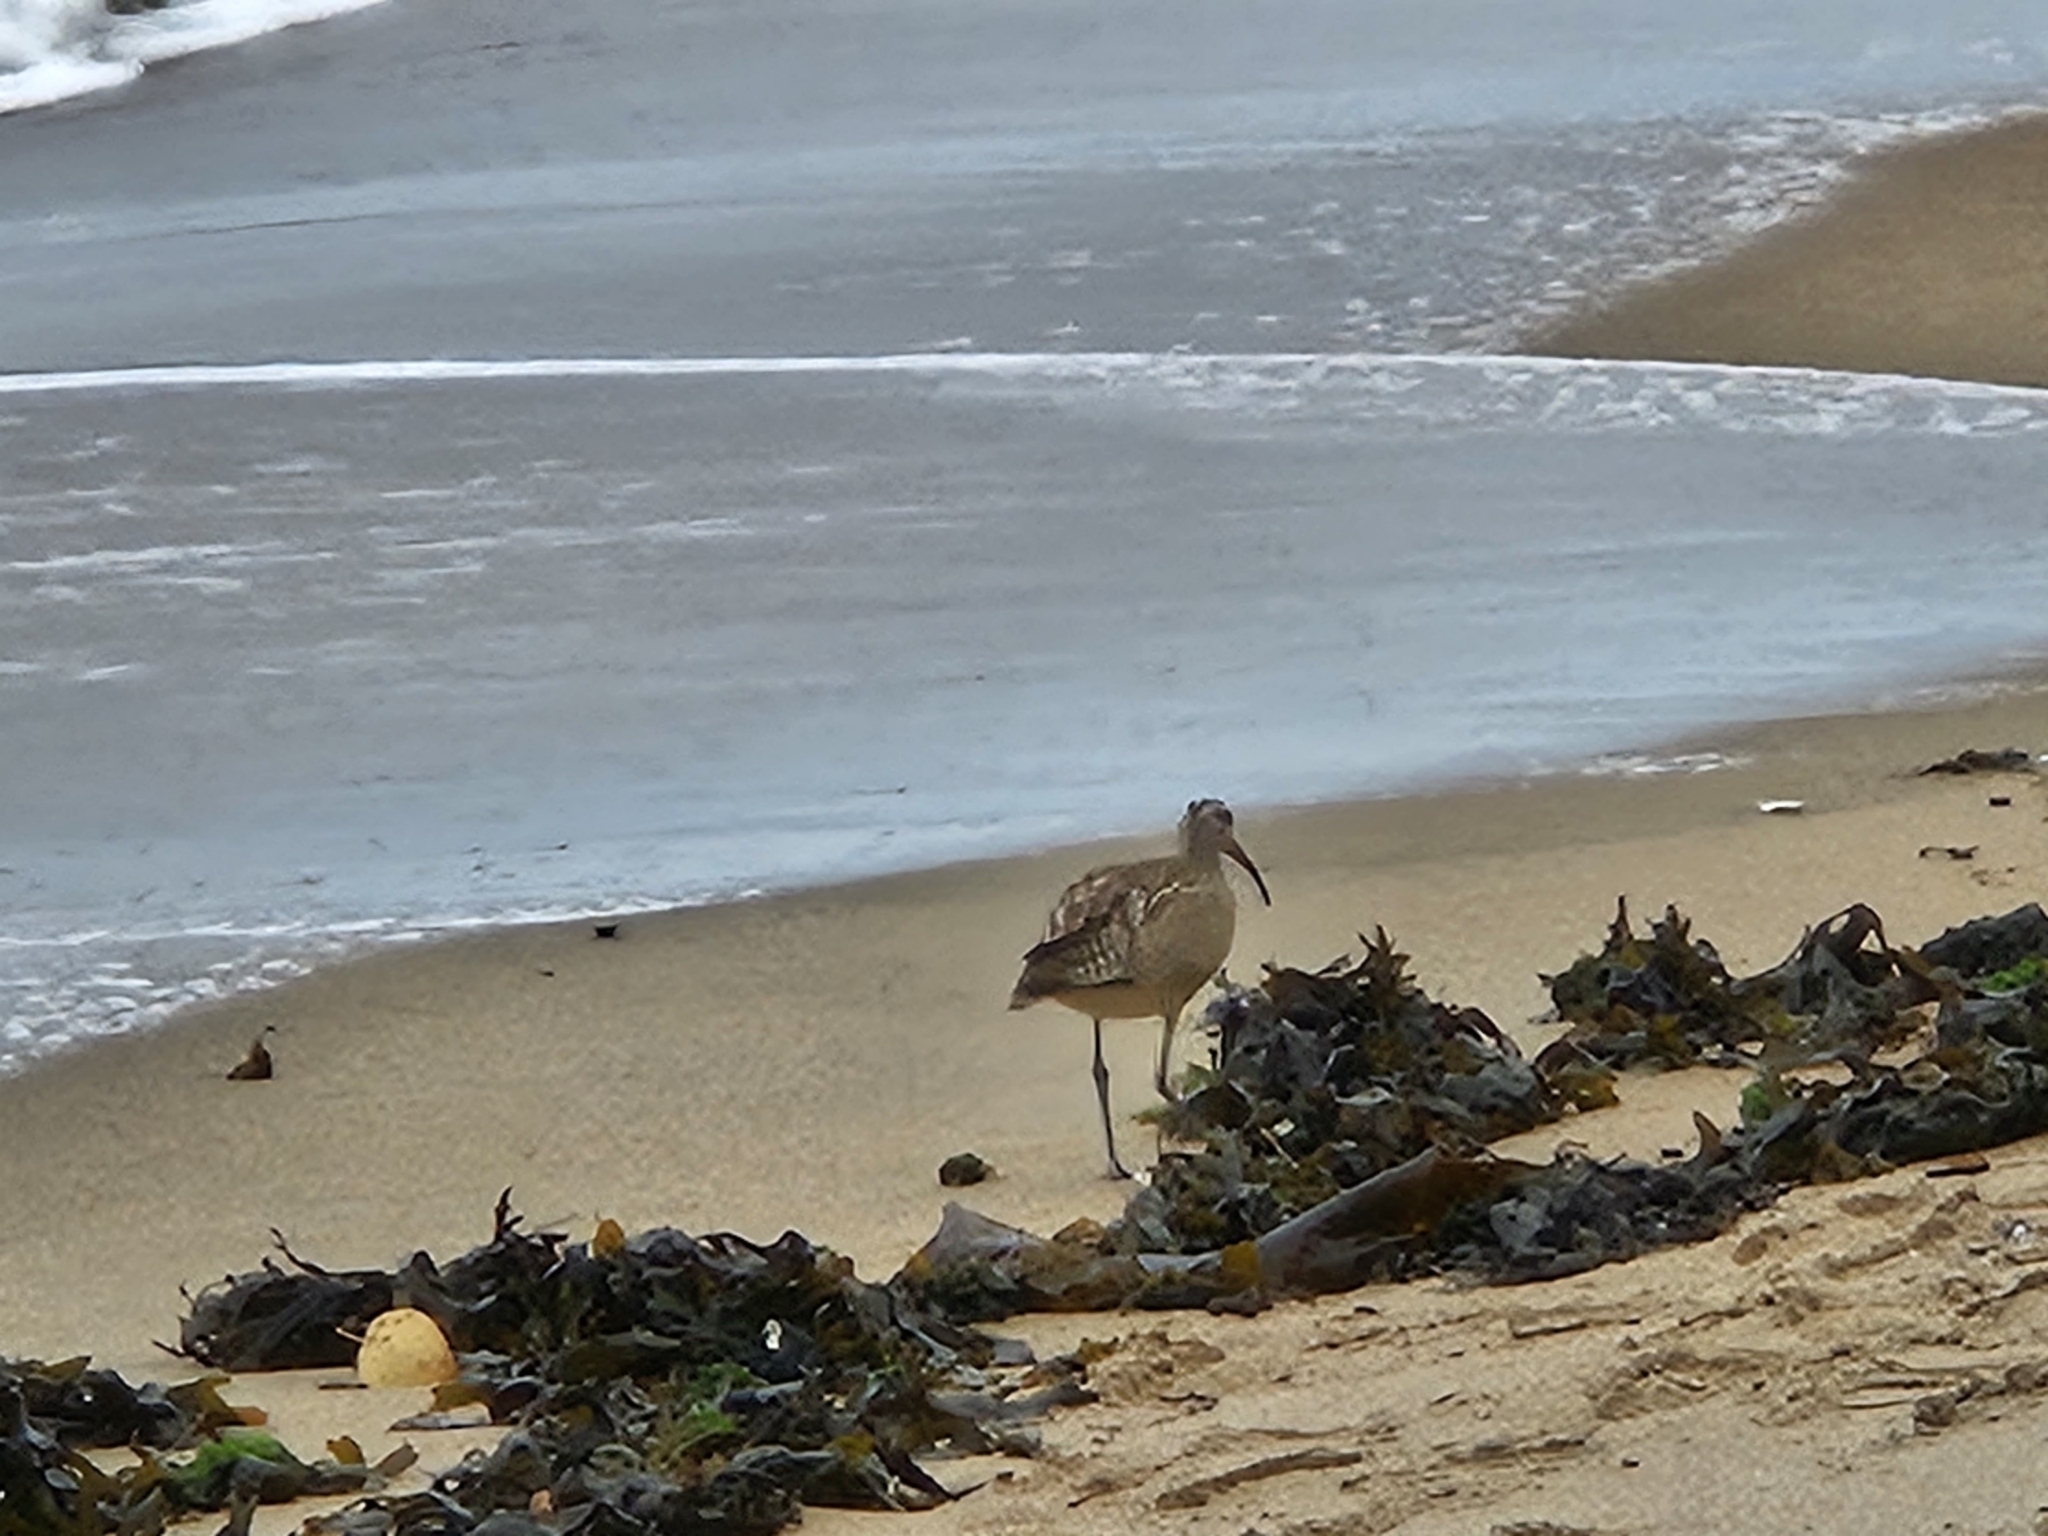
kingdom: Animalia
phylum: Chordata
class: Aves
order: Charadriiformes
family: Scolopacidae
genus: Numenius
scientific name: Numenius phaeopus
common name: Whimbrel
